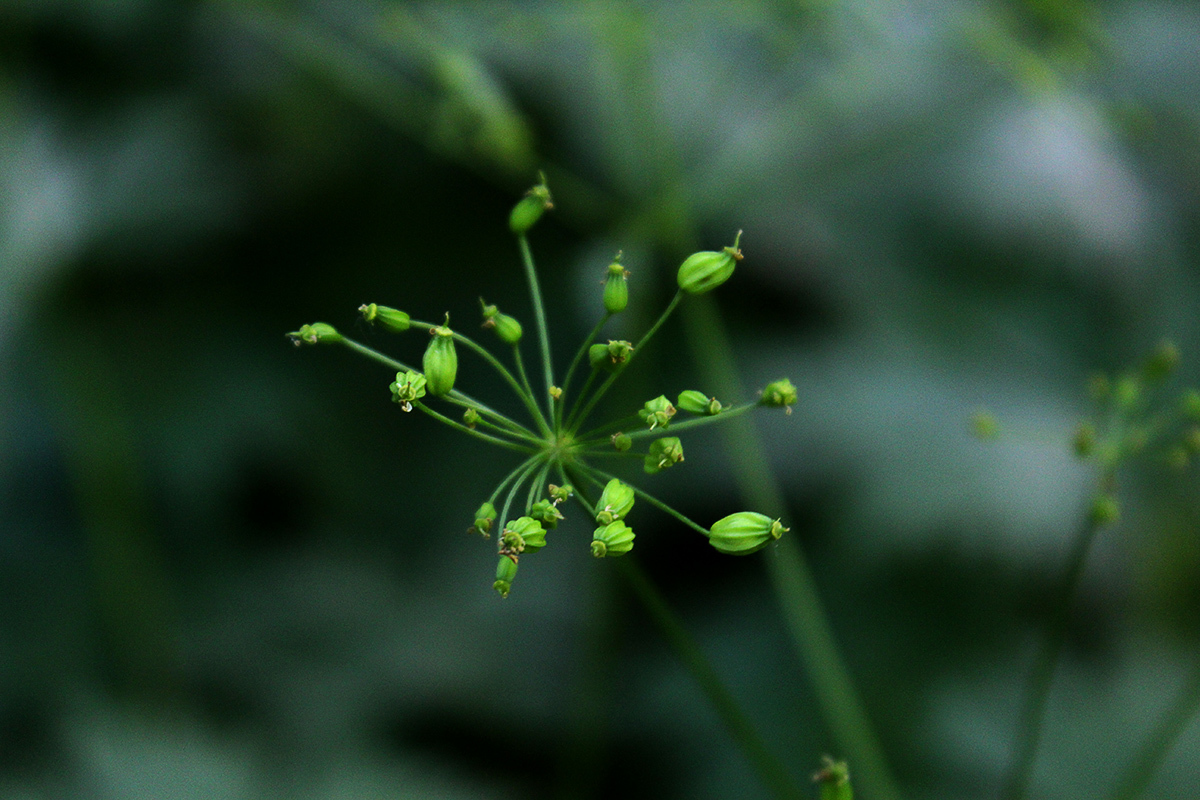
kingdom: Plantae
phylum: Tracheophyta
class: Magnoliopsida
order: Apiales
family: Apiaceae
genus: Eleutherospermum
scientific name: Eleutherospermum cicutarium
